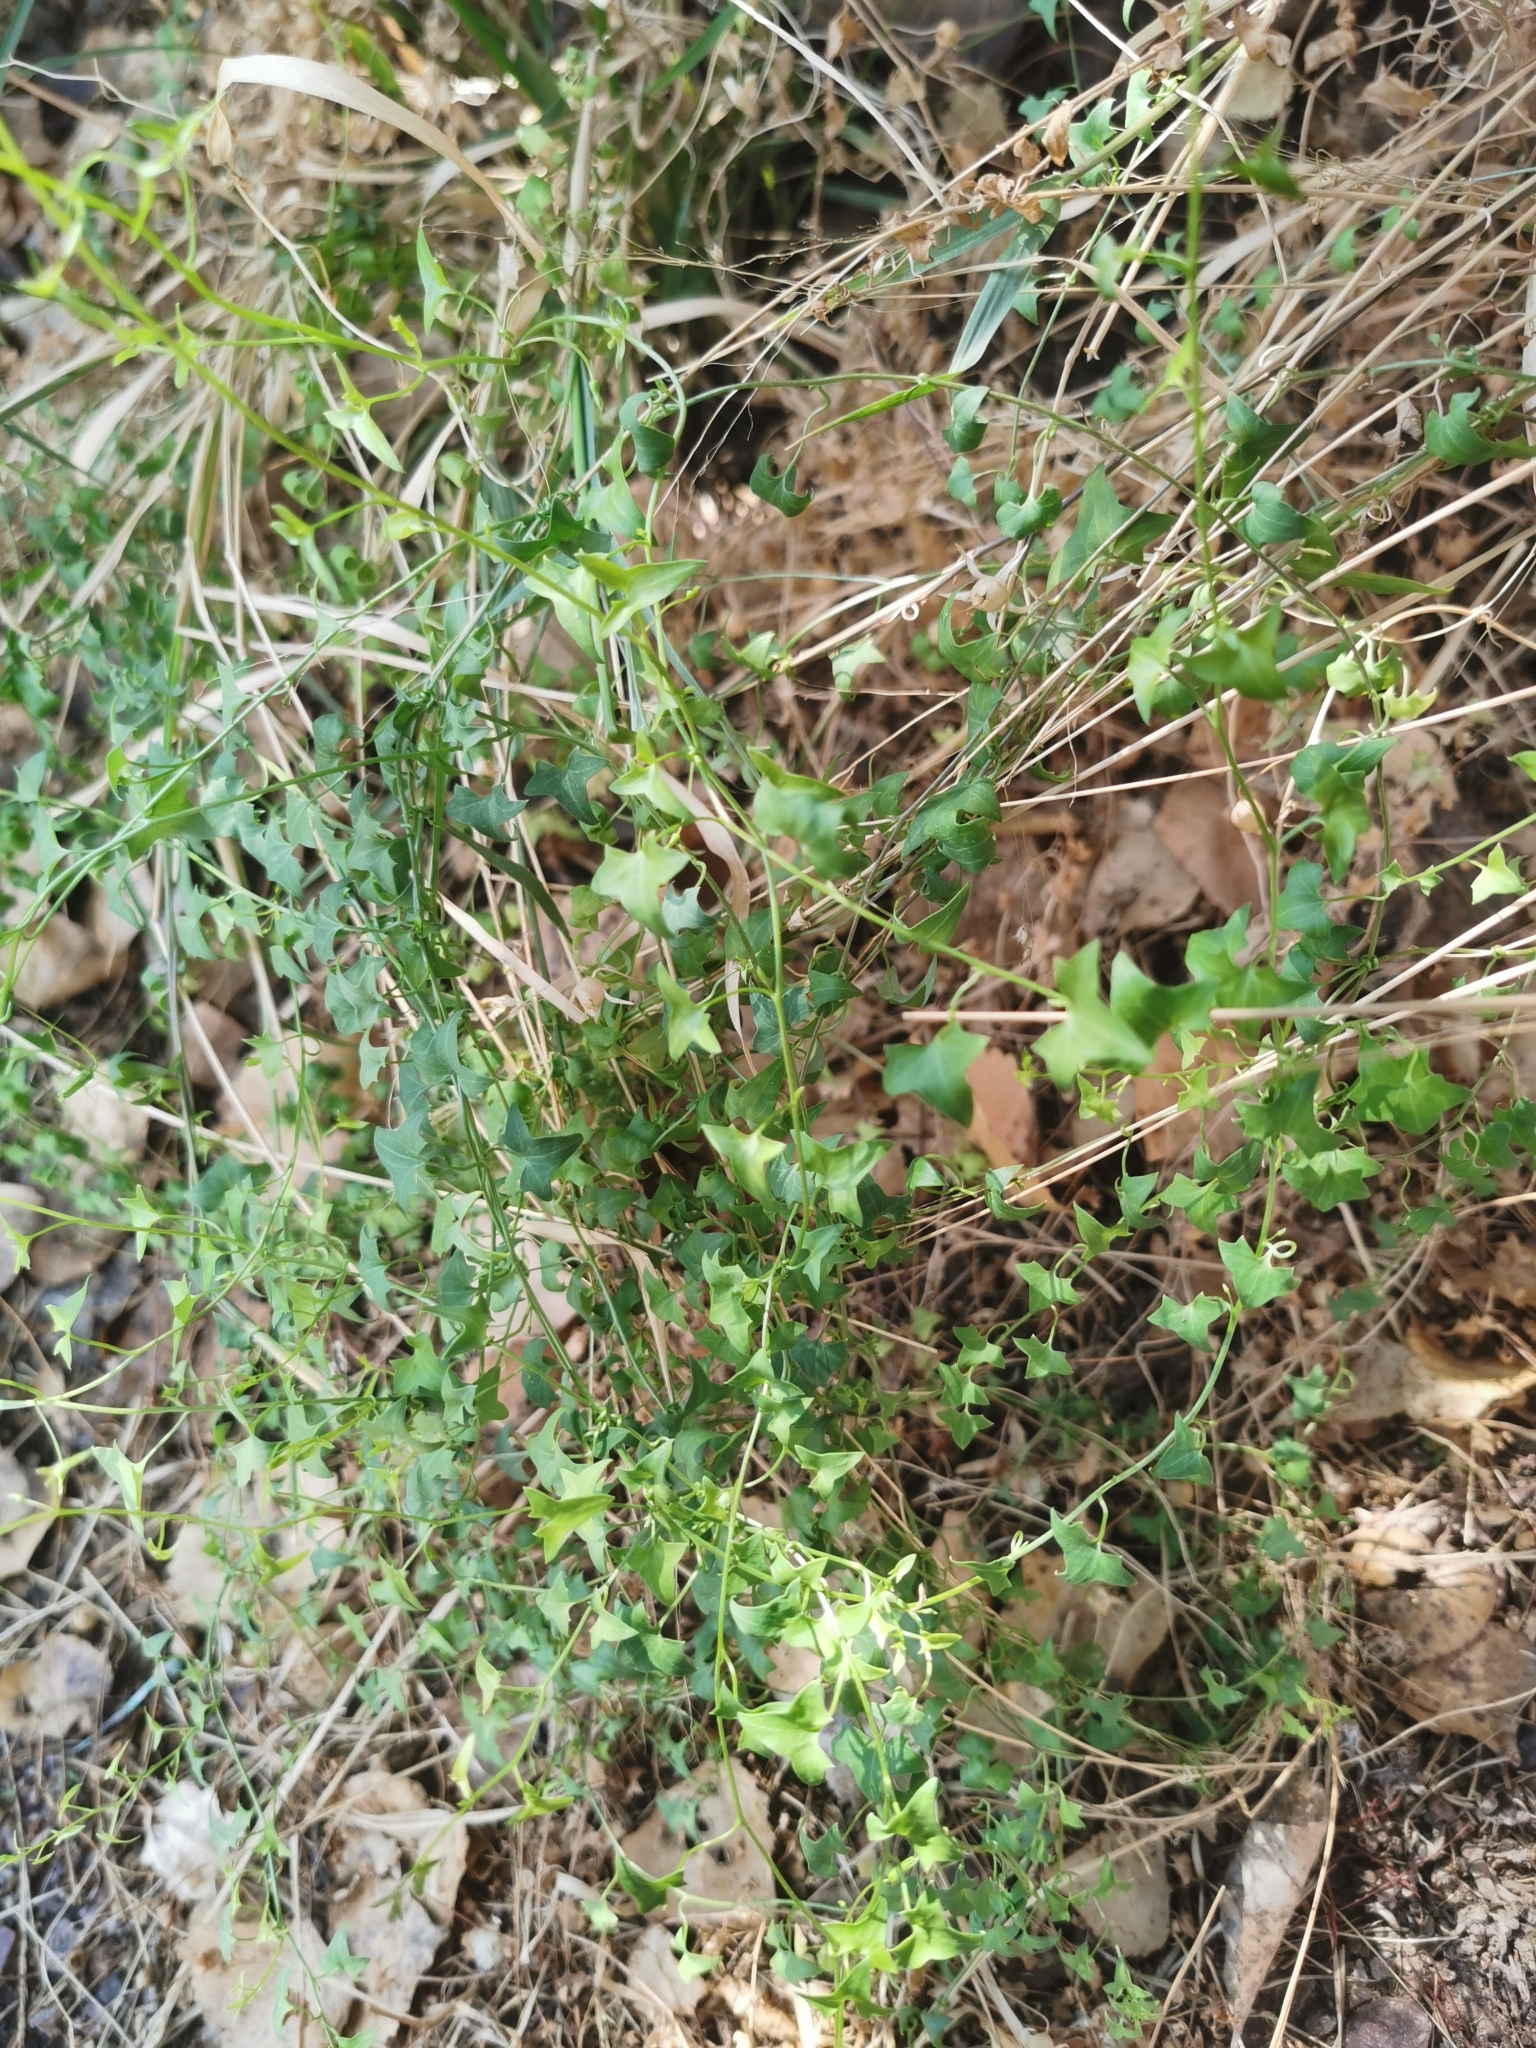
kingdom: Plantae
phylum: Tracheophyta
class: Magnoliopsida
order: Lamiales
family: Plantaginaceae
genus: Maurandella
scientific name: Maurandella antirrhiniflora
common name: Violet twining-snapdragon
